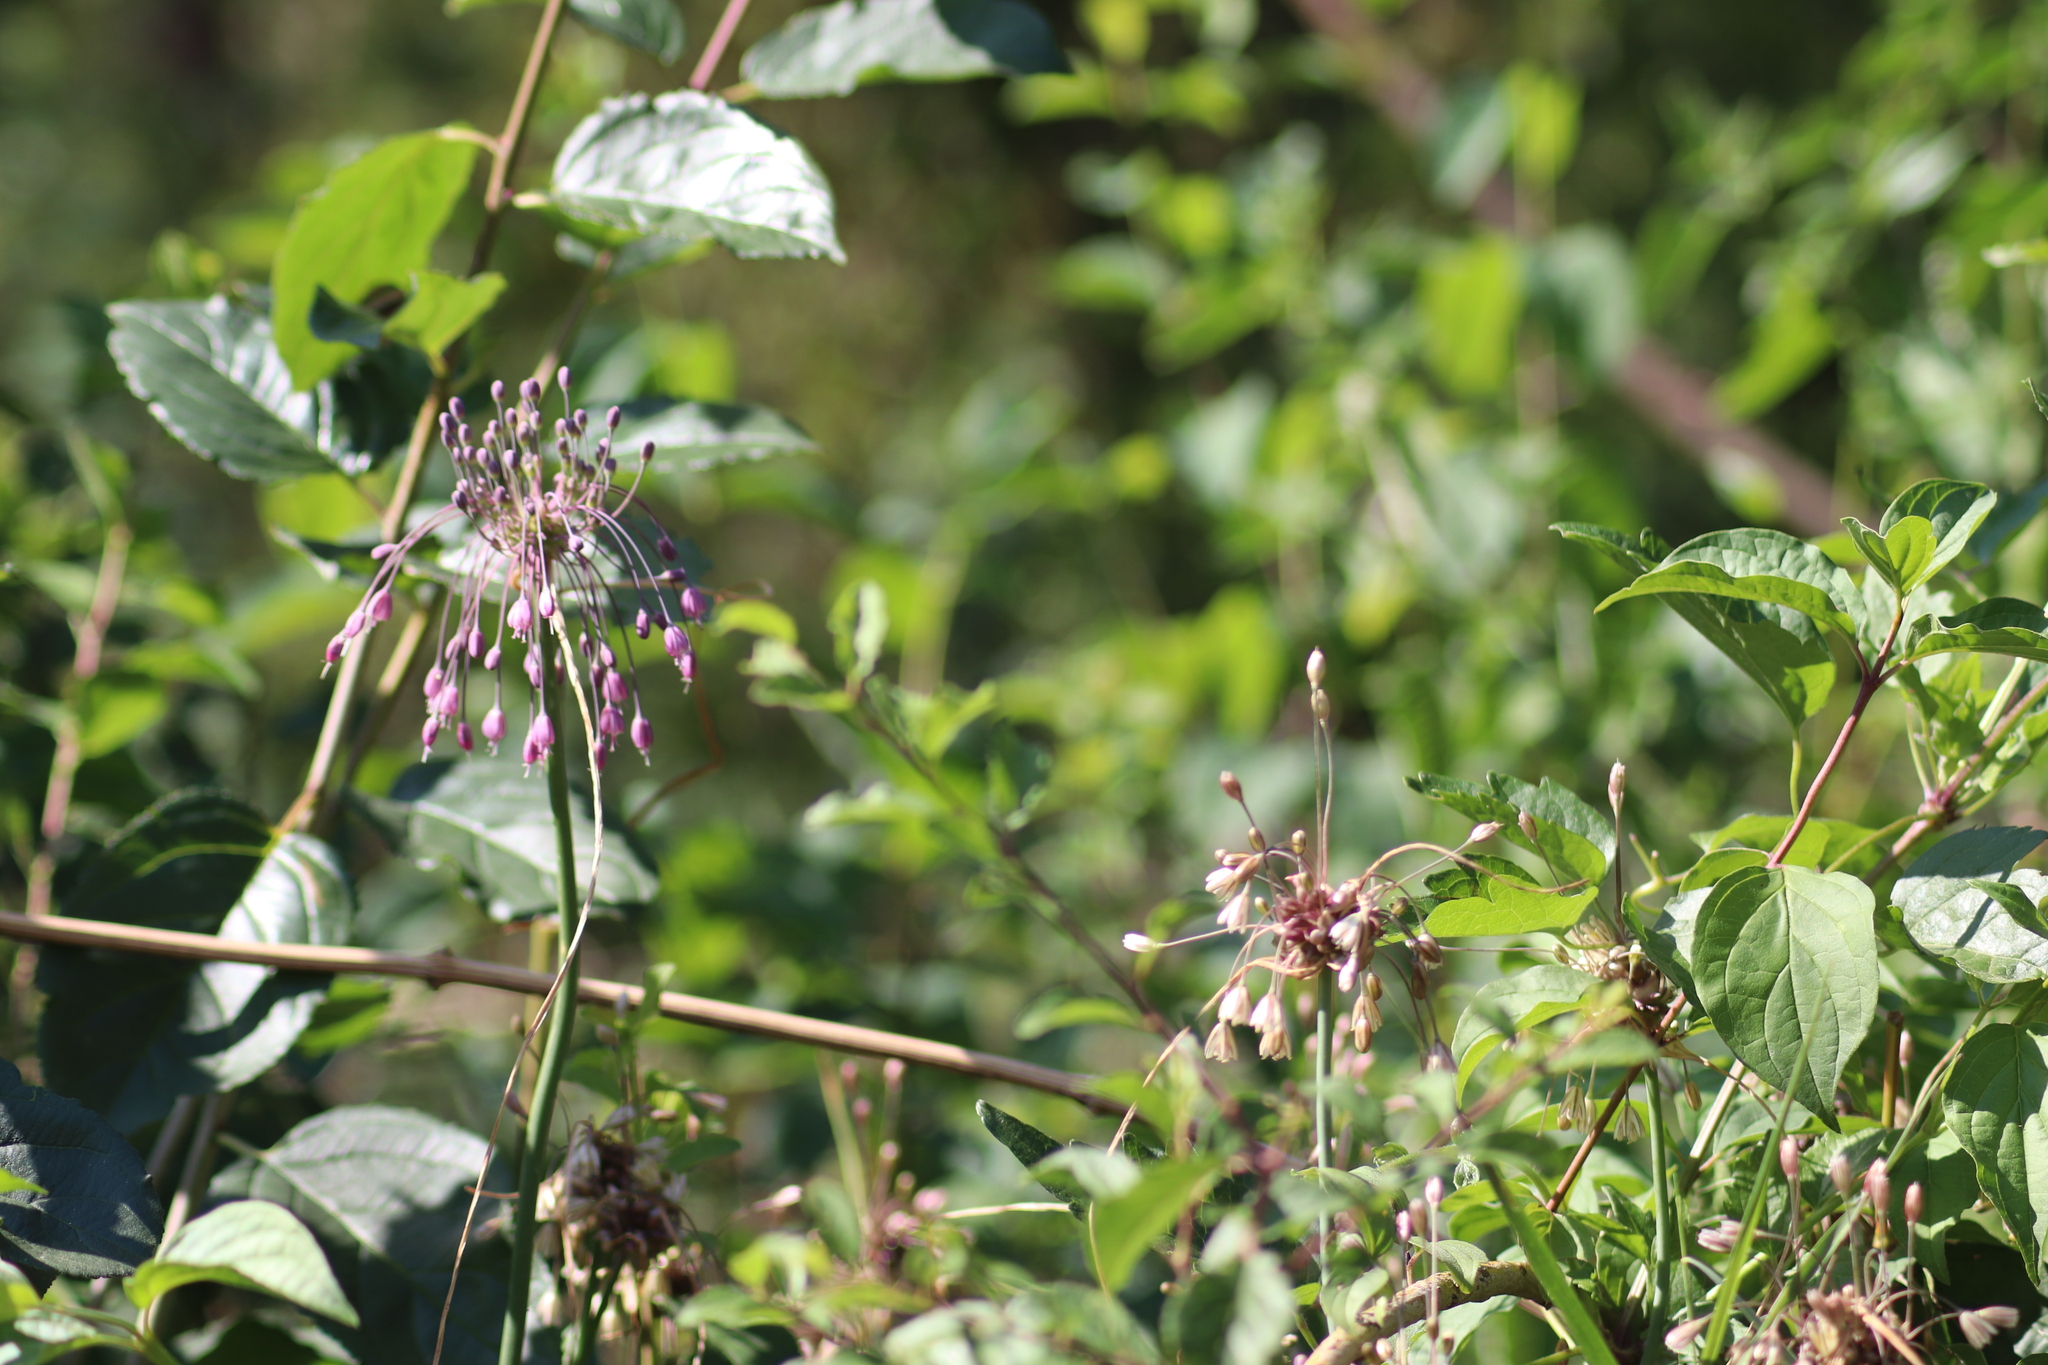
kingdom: Plantae
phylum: Tracheophyta
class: Liliopsida
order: Asparagales
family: Amaryllidaceae
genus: Allium
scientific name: Allium carinatum
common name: Keeled garlic
